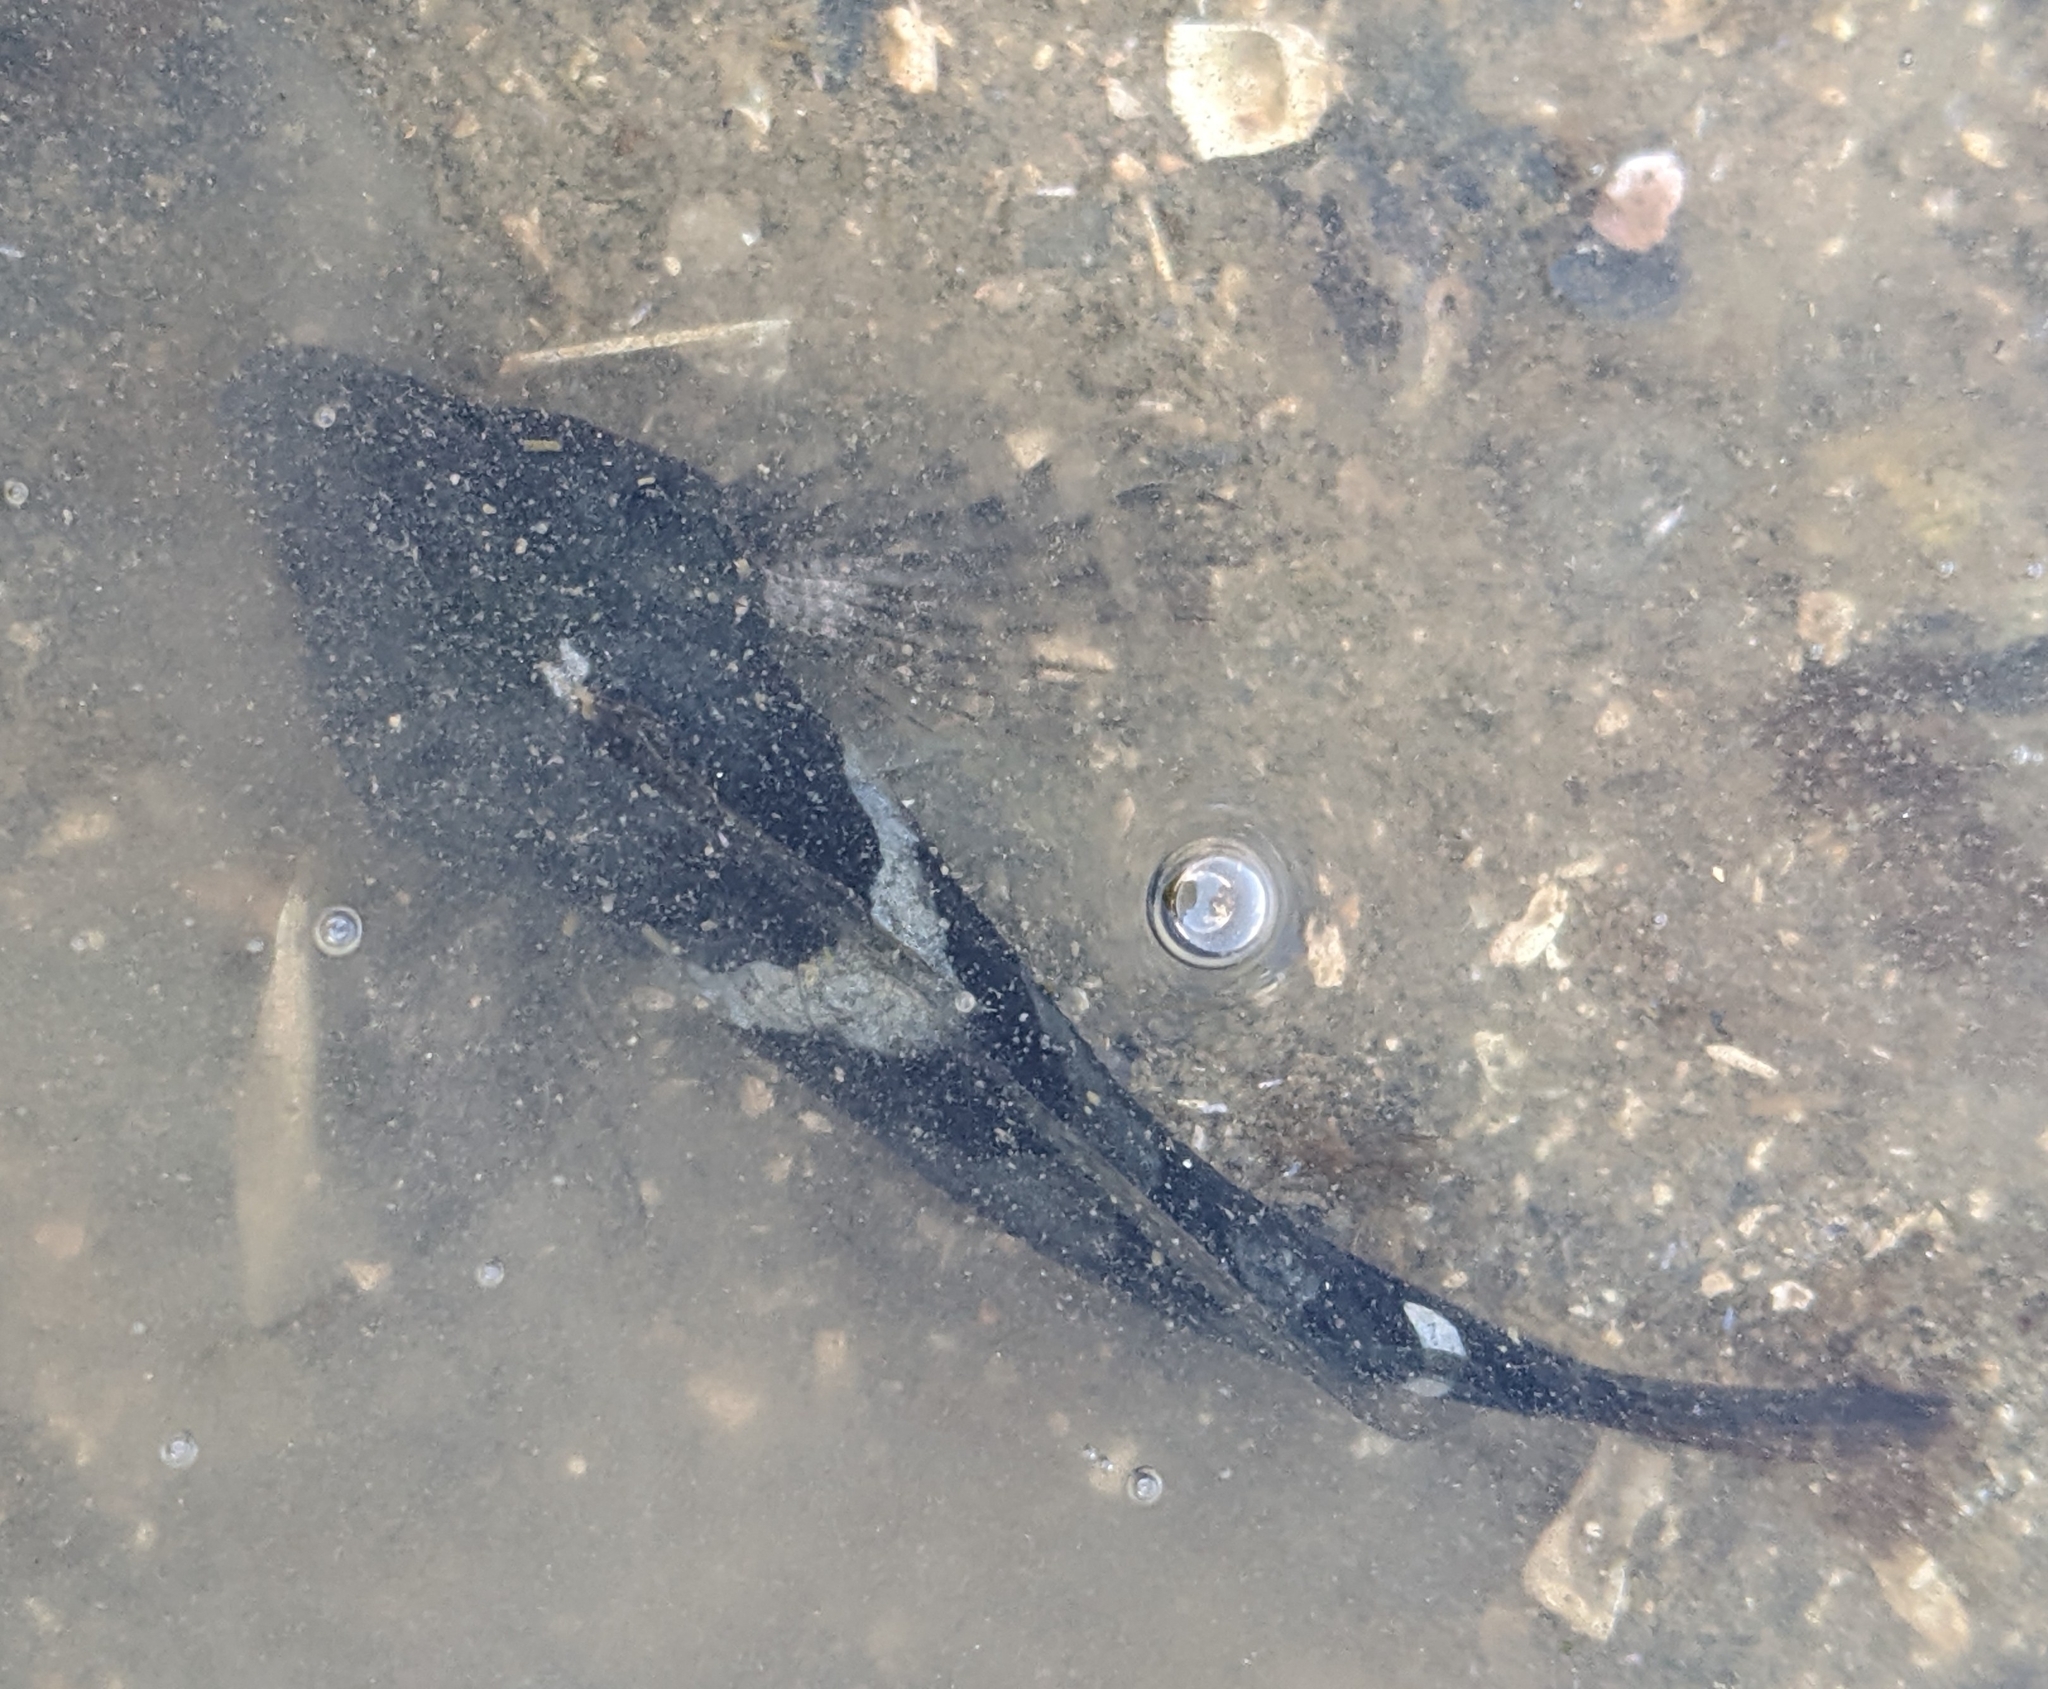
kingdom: Animalia
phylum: Chordata
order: Scorpaeniformes
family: Cottidae
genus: Oligocottus
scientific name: Oligocottus maculosus
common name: Tidepool sculpin
